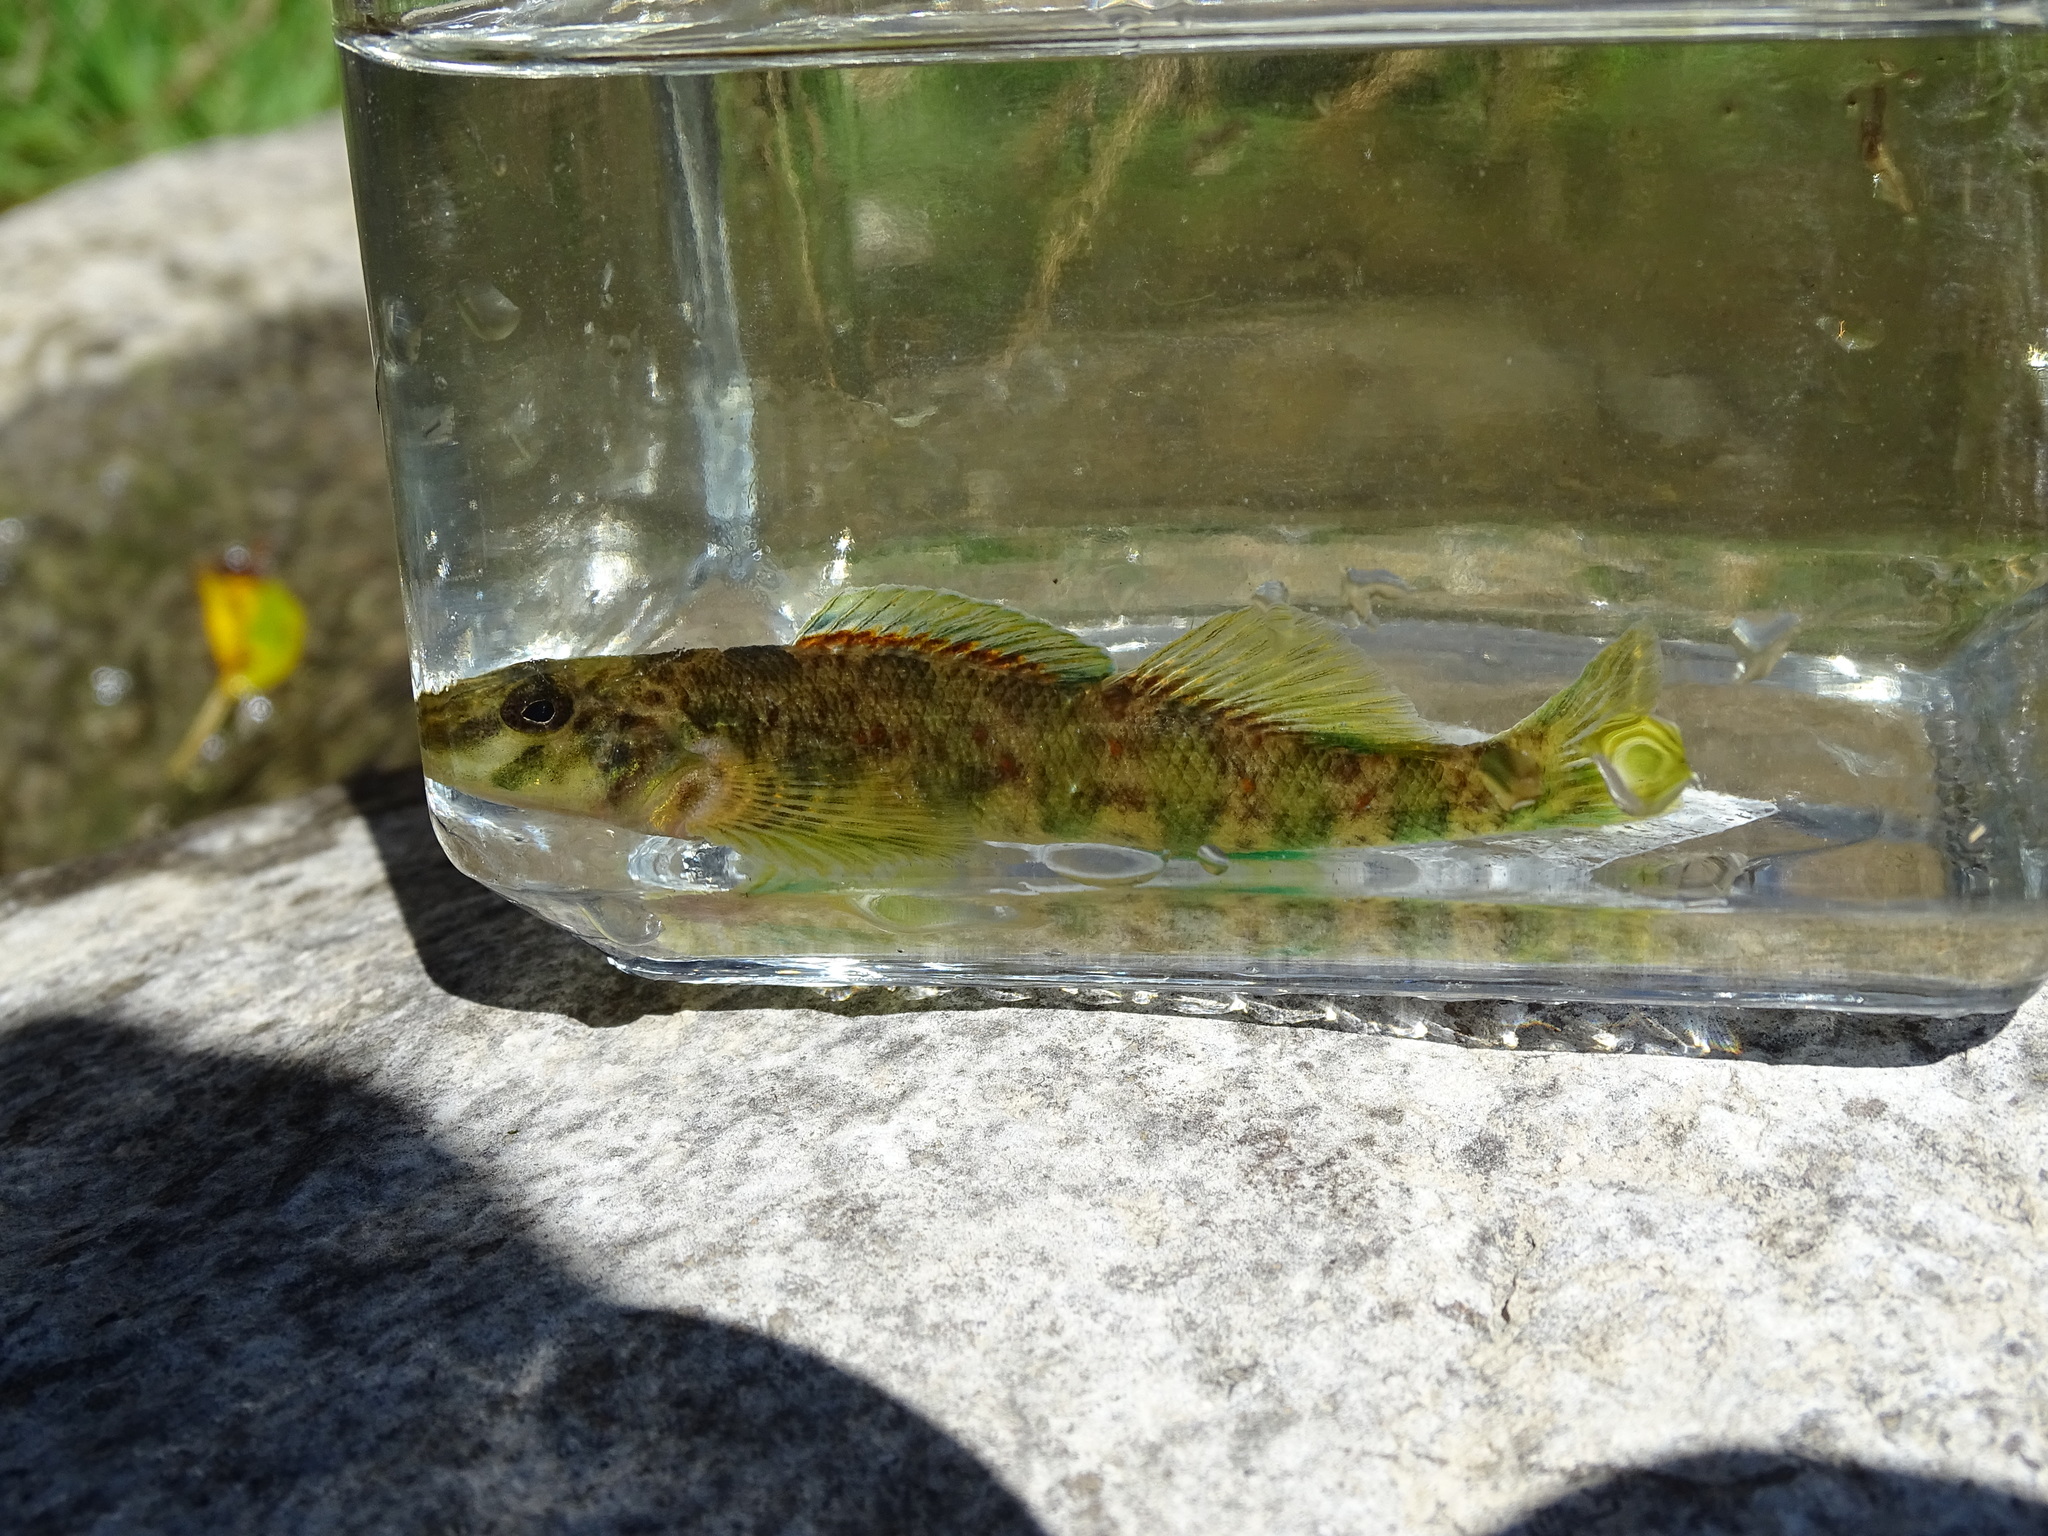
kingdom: Animalia
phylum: Chordata
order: Perciformes
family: Percidae
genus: Etheostoma
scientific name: Etheostoma blennioides
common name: Greenside darter
